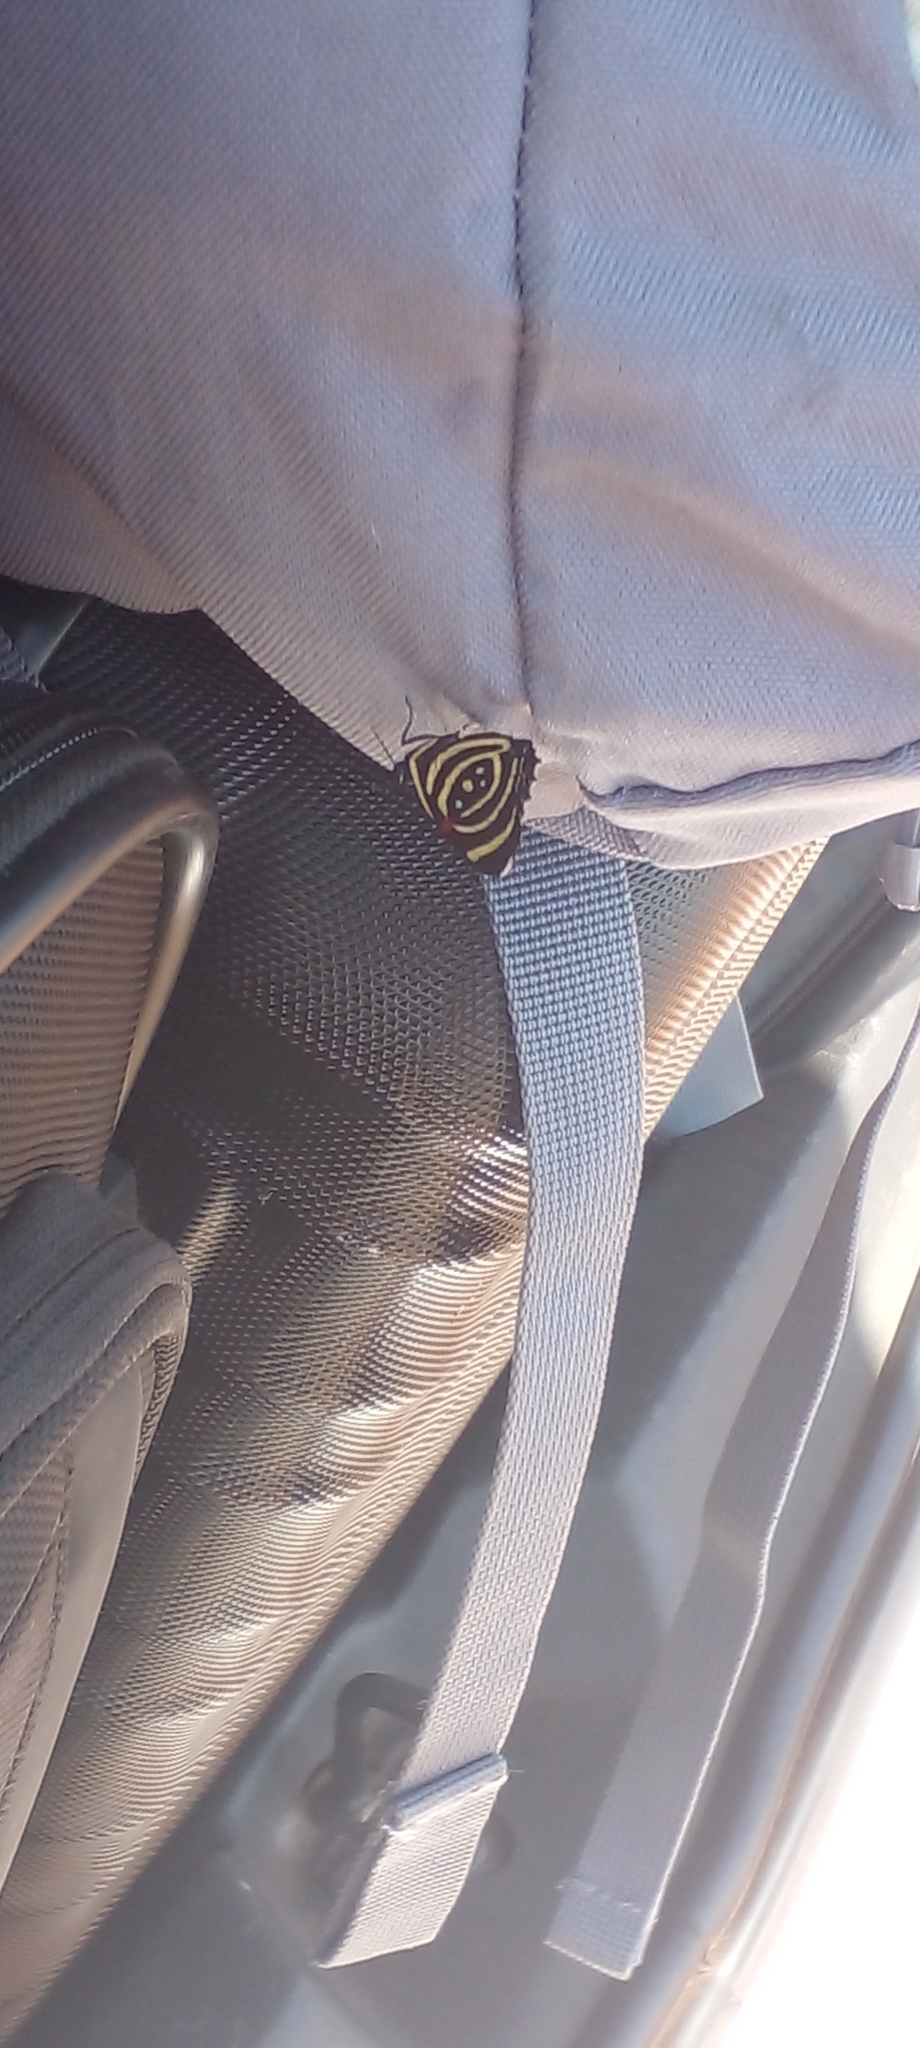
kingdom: Animalia
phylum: Arthropoda
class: Insecta
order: Lepidoptera
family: Nymphalidae
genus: Catagramma
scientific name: Catagramma Callicore hydaspes
